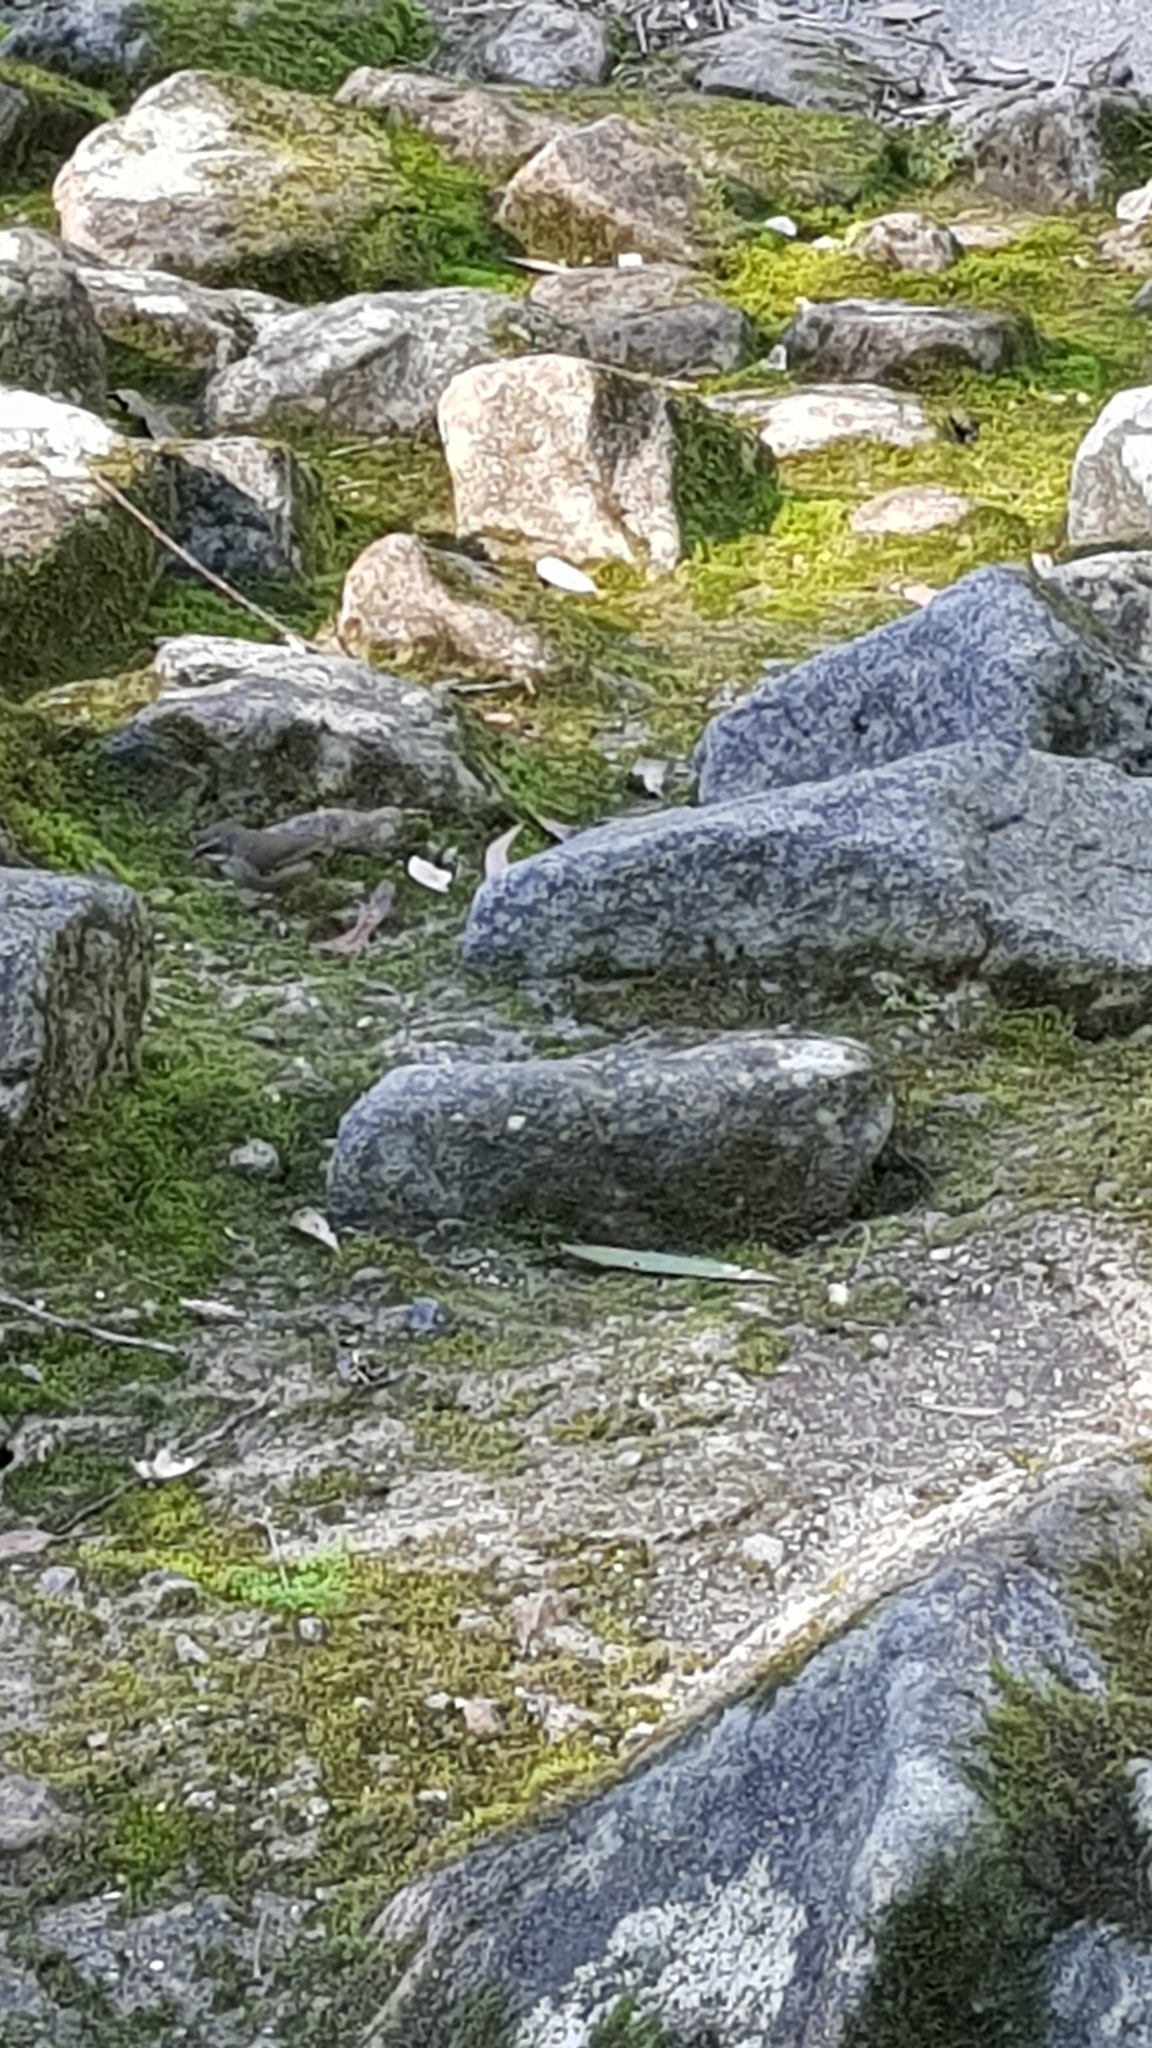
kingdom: Animalia
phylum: Chordata
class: Aves
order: Passeriformes
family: Acanthizidae
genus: Sericornis
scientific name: Sericornis frontalis
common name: White-browed scrubwren
